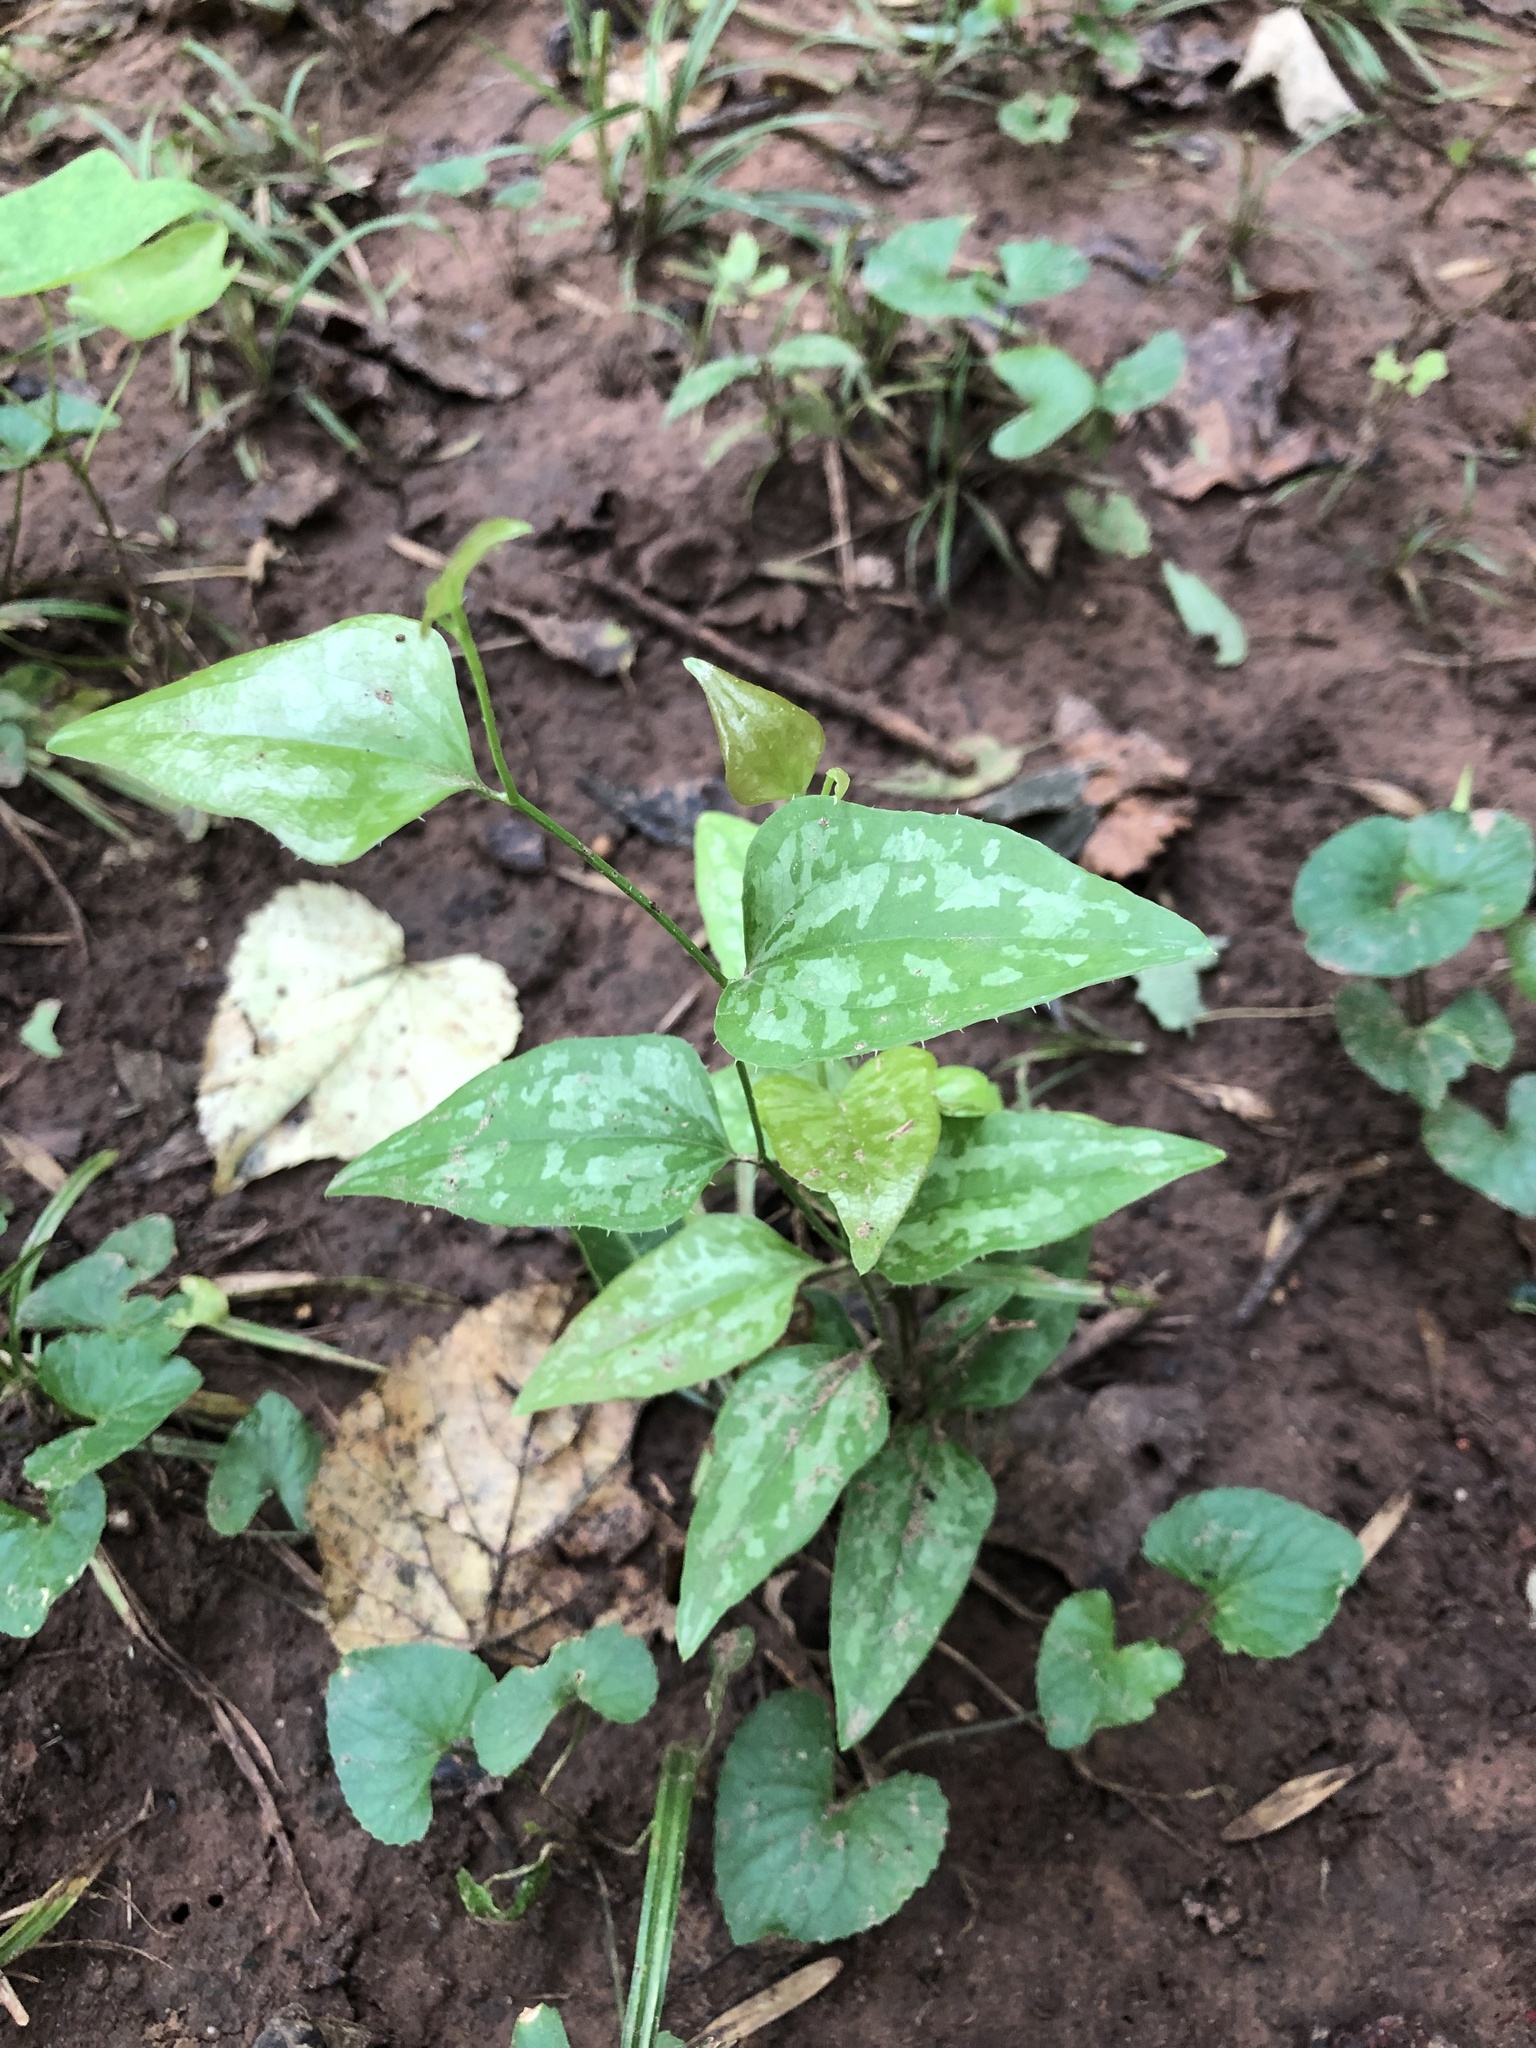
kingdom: Plantae
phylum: Tracheophyta
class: Liliopsida
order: Liliales
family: Smilacaceae
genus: Smilax
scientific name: Smilax bona-nox
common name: Catbrier
